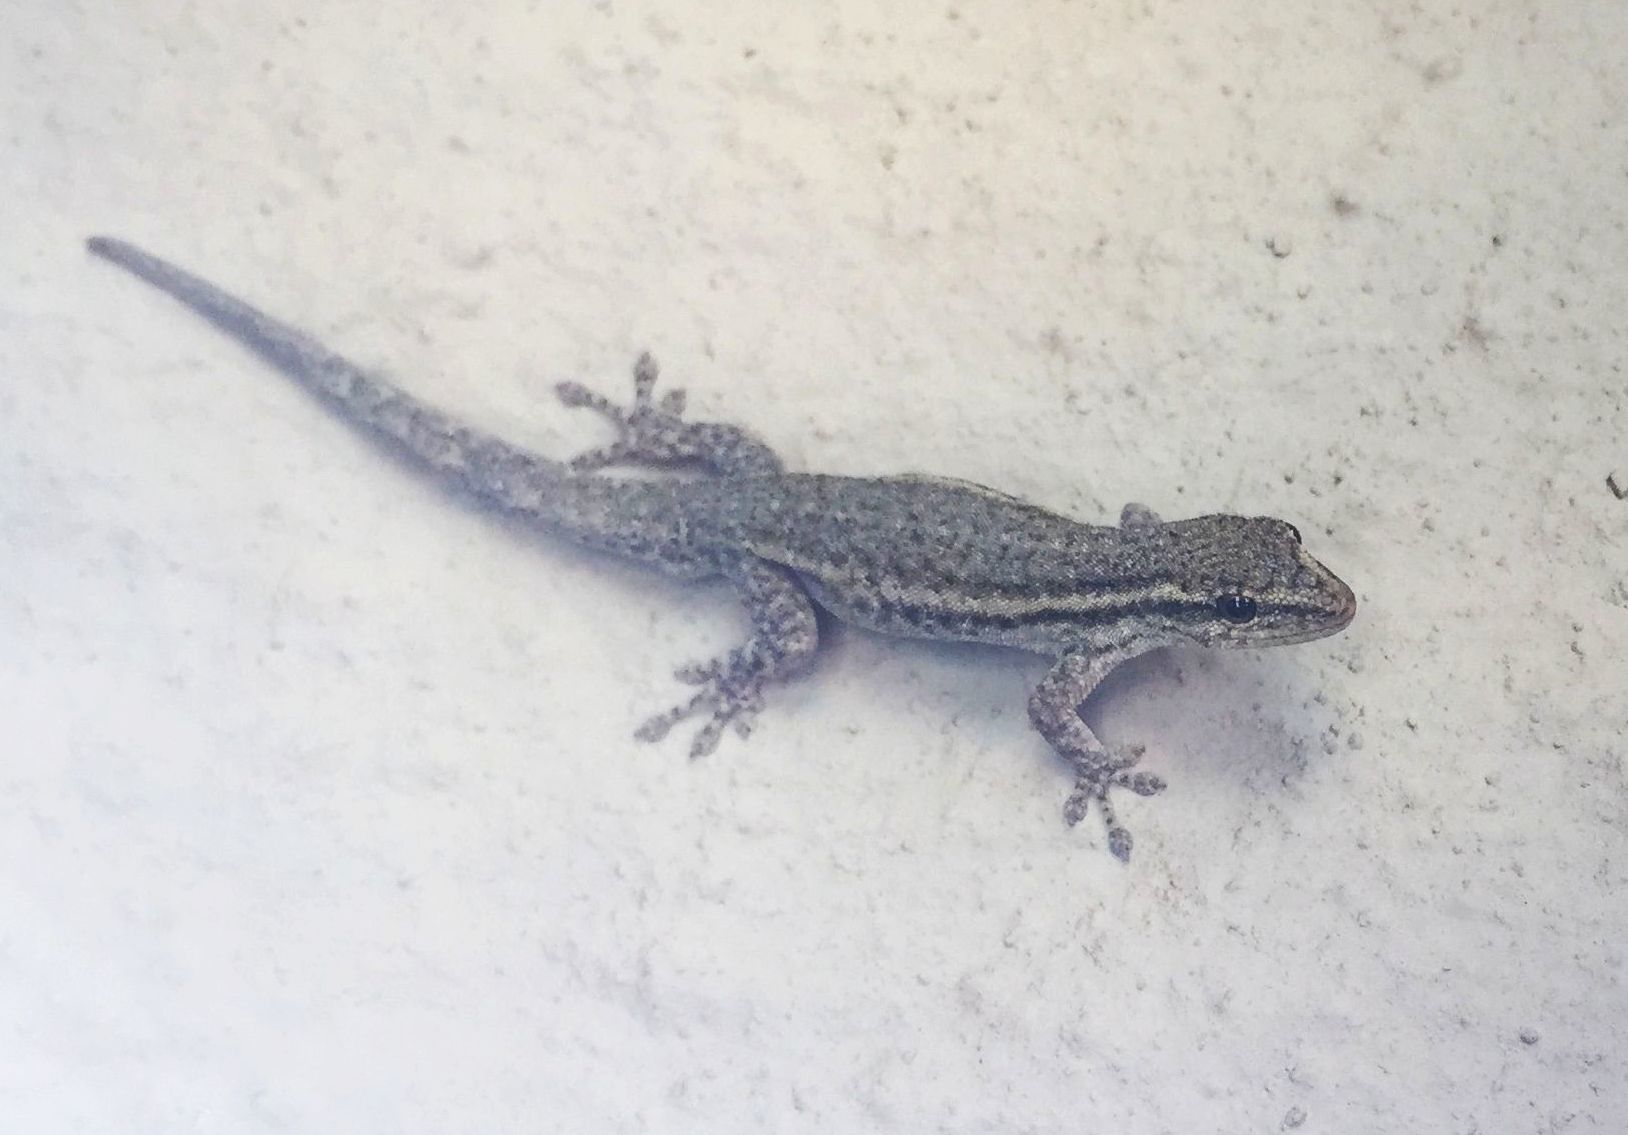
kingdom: Animalia
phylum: Chordata
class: Squamata
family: Gekkonidae
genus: Lygodactylus
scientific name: Lygodactylus capensis
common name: Cape dwarf gecko
